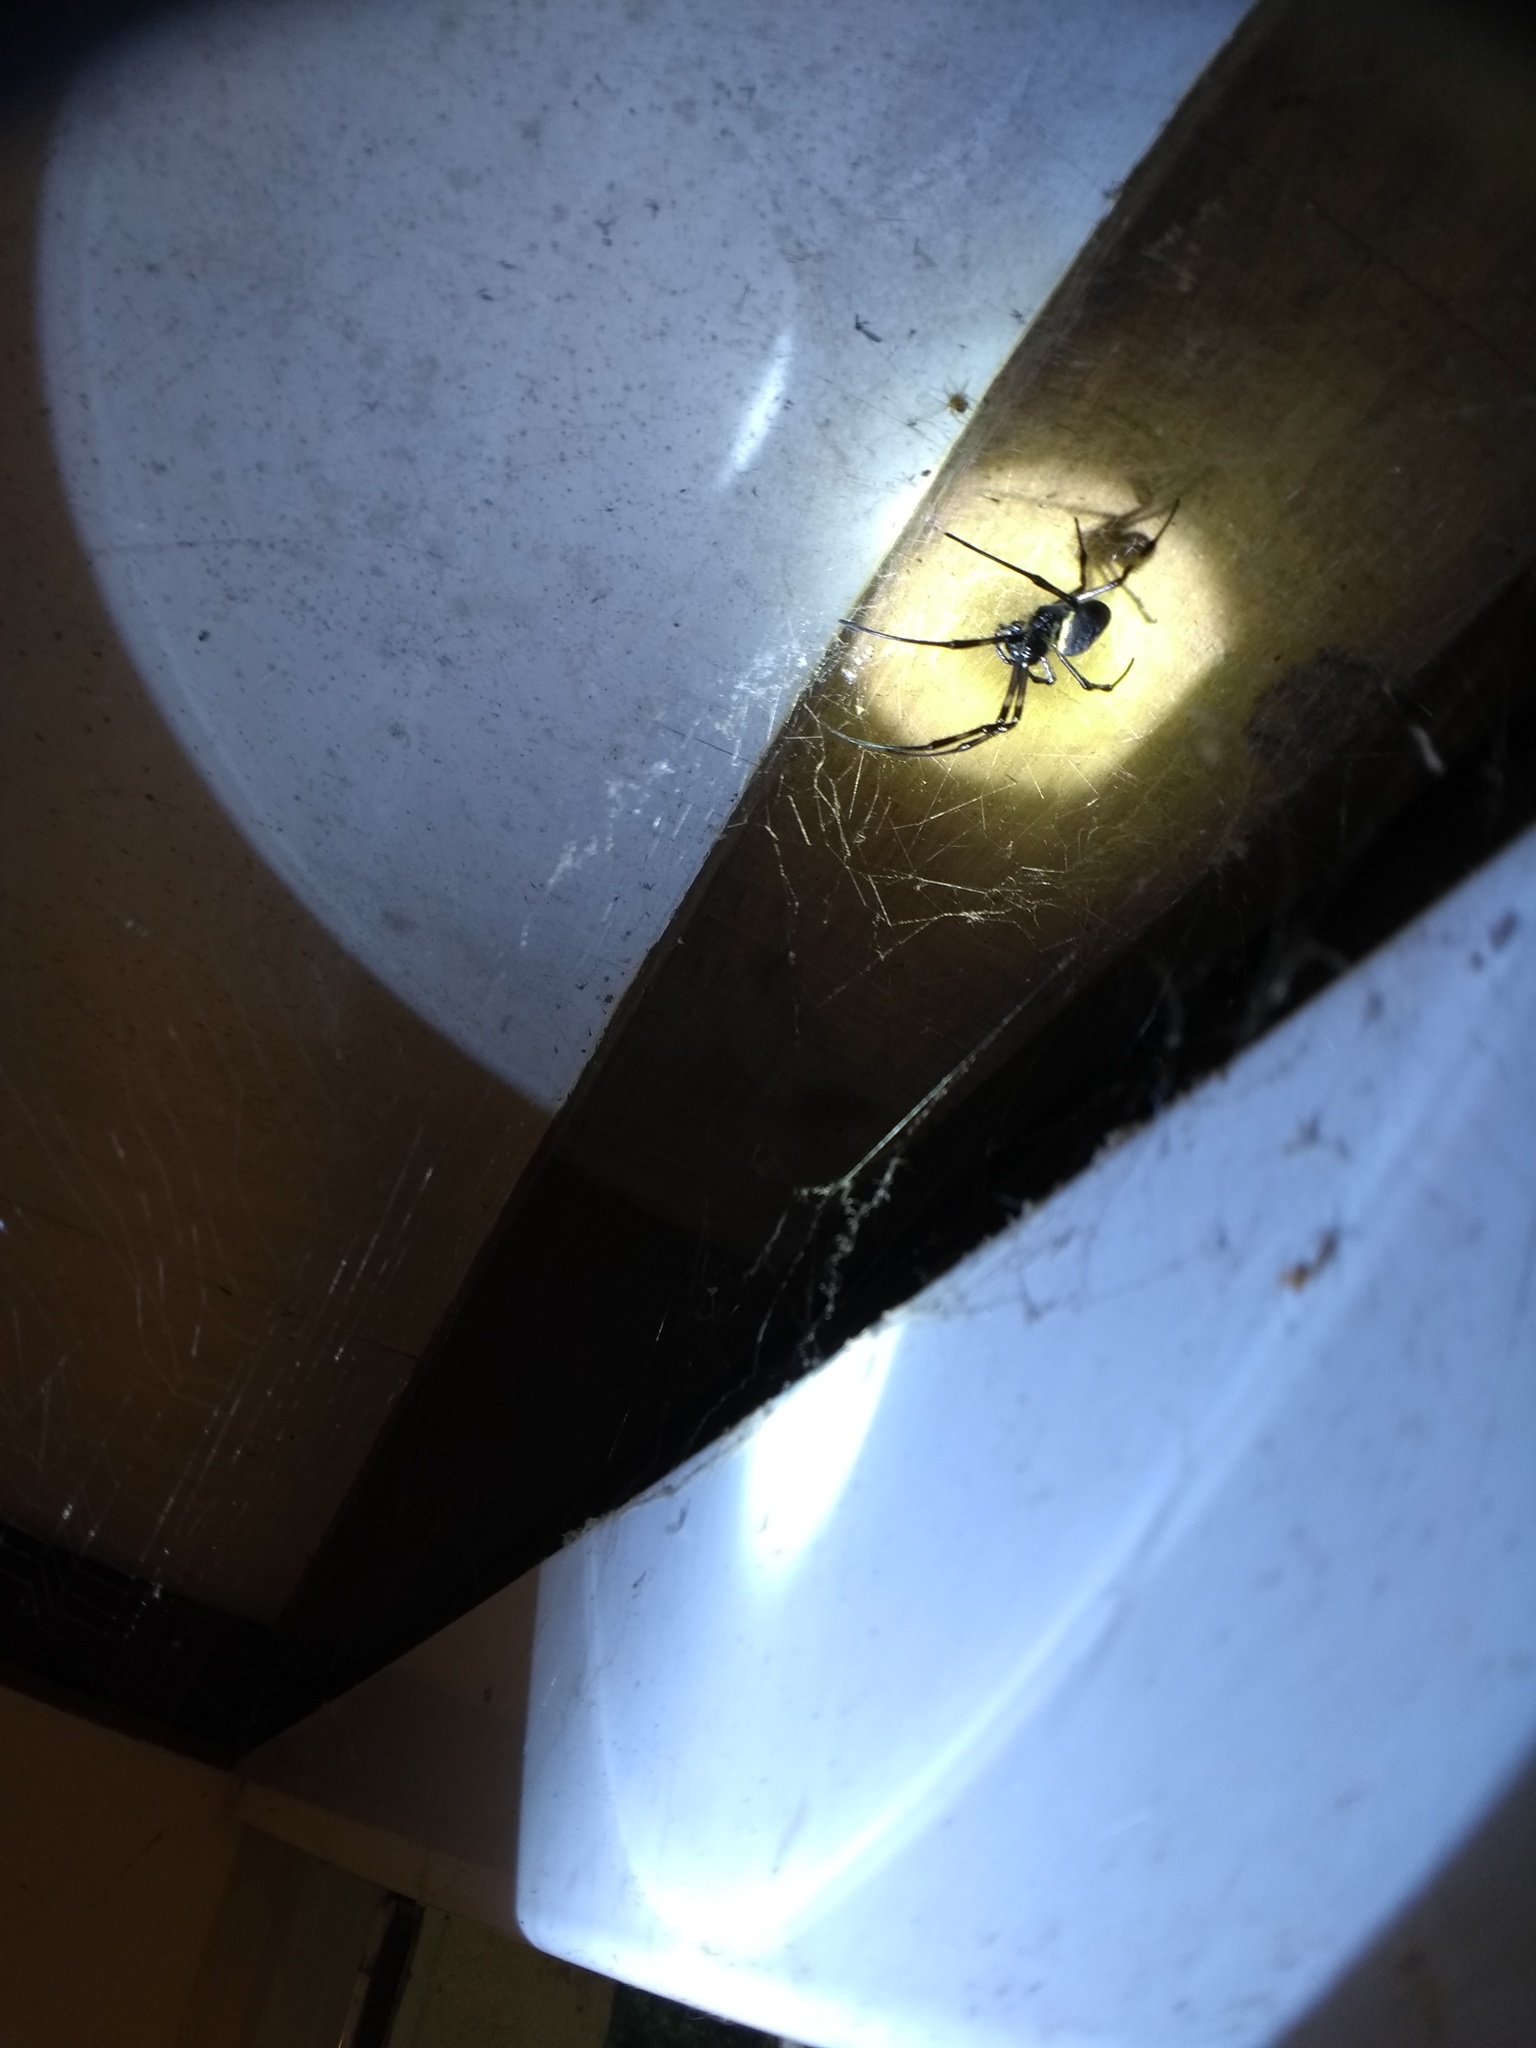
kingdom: Animalia
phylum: Arthropoda
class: Arachnida
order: Araneae
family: Araneidae
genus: Nephilingis
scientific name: Nephilingis cruentata
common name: African hermit spider
